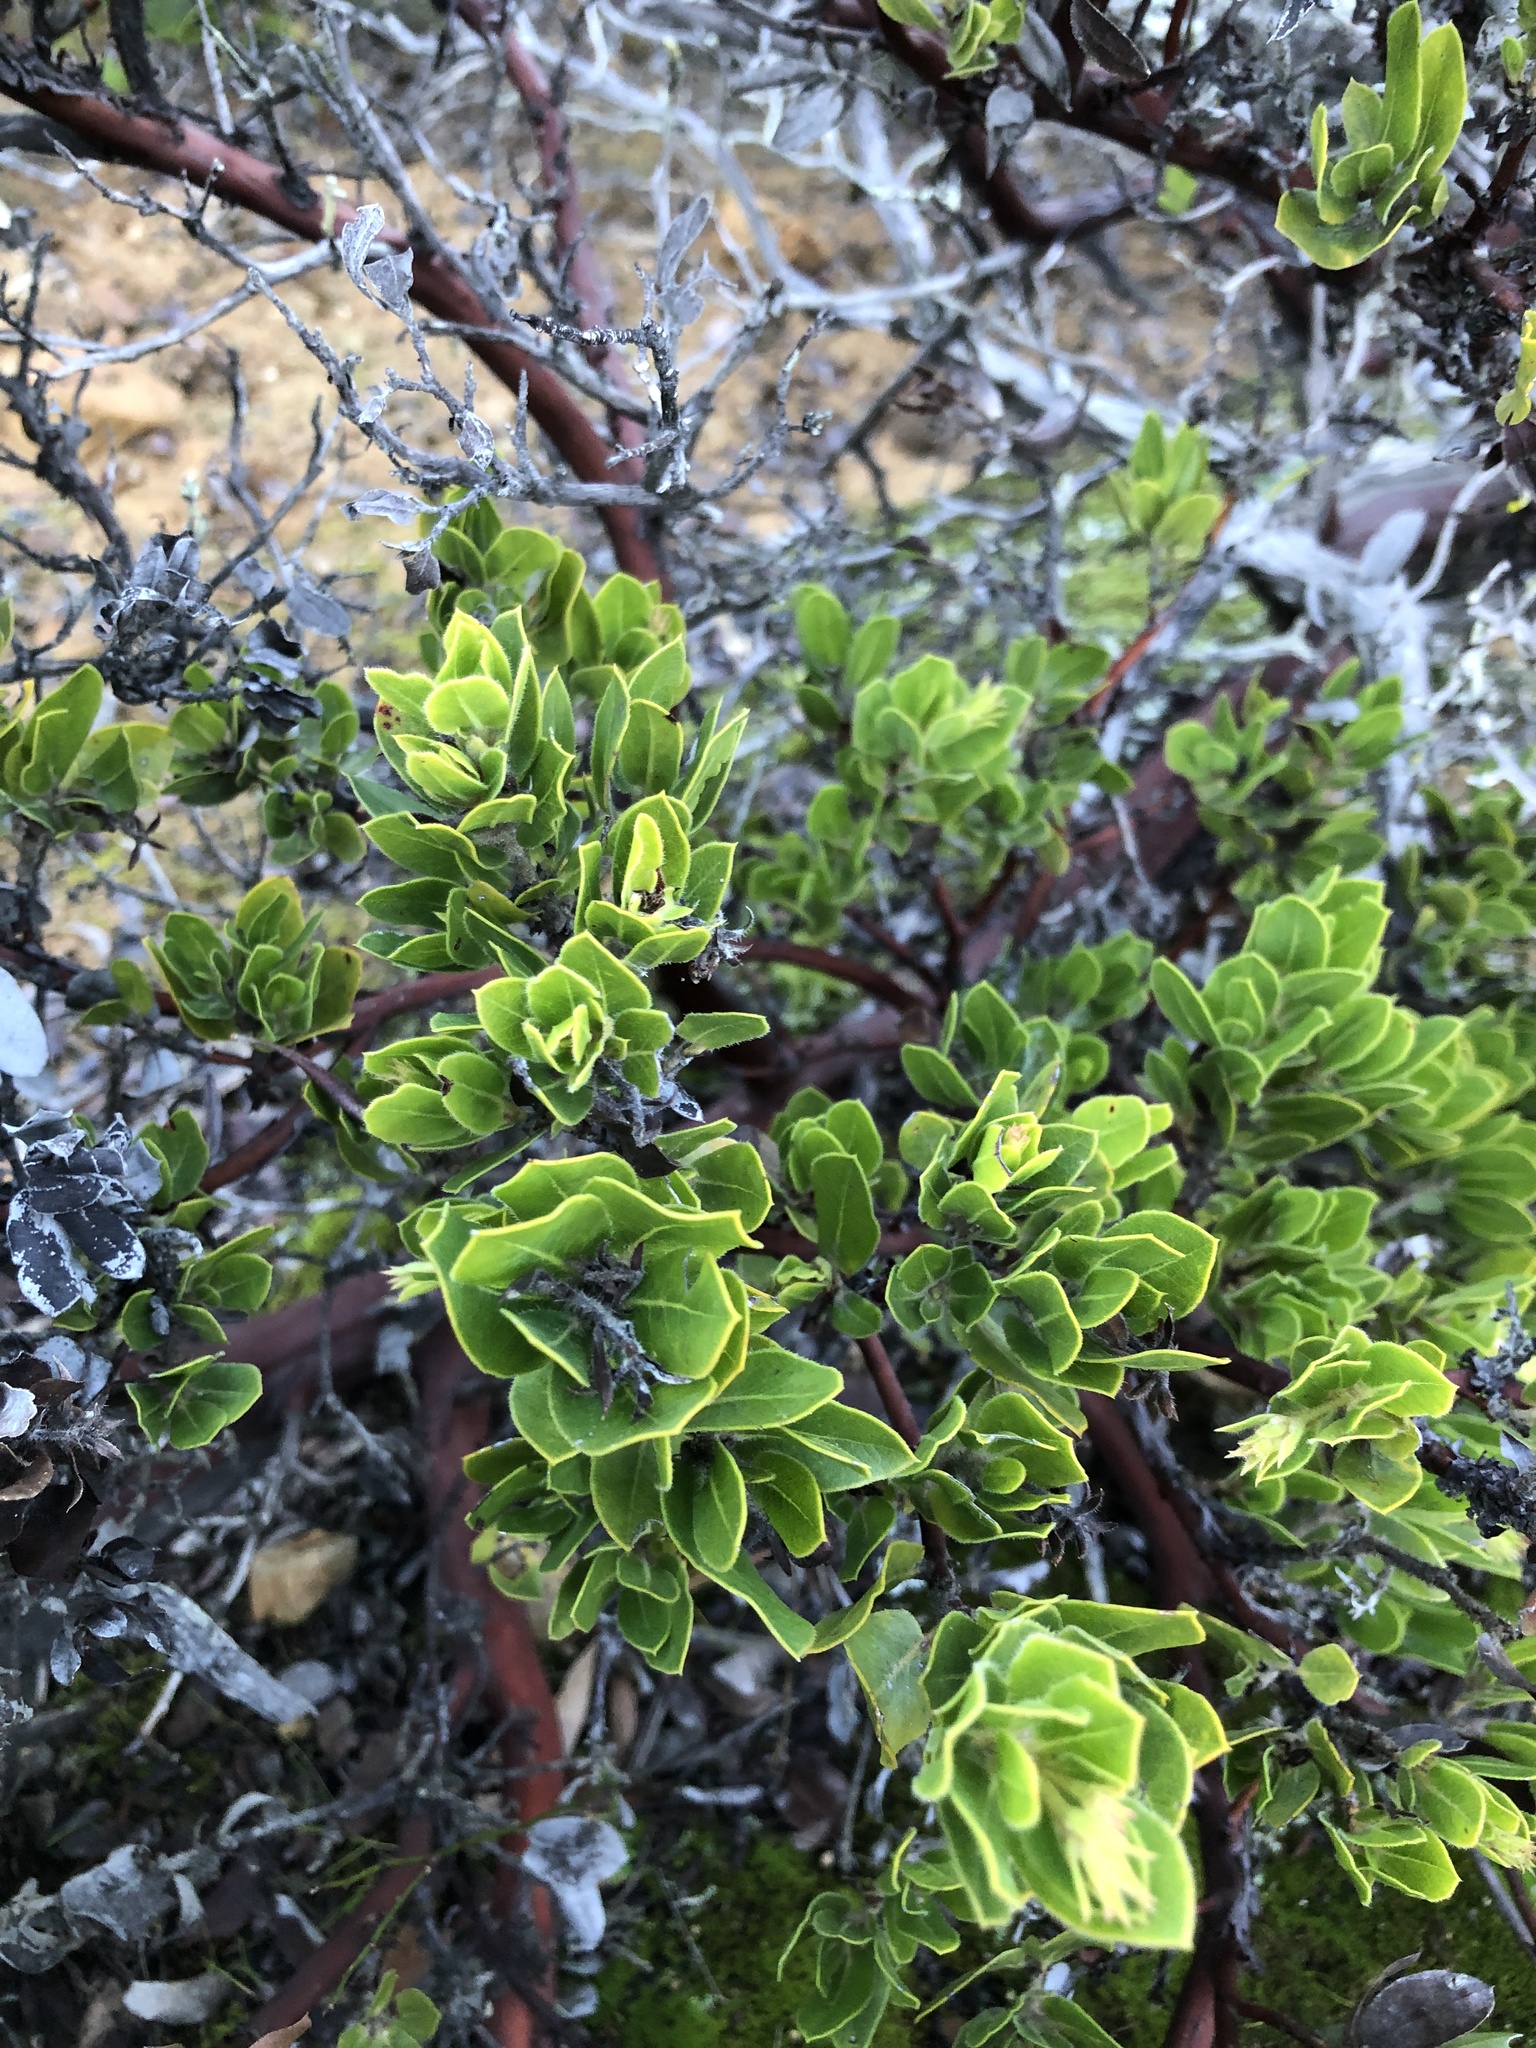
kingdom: Plantae
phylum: Tracheophyta
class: Magnoliopsida
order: Ericales
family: Ericaceae
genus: Arctostaphylos
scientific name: Arctostaphylos montaraensis
